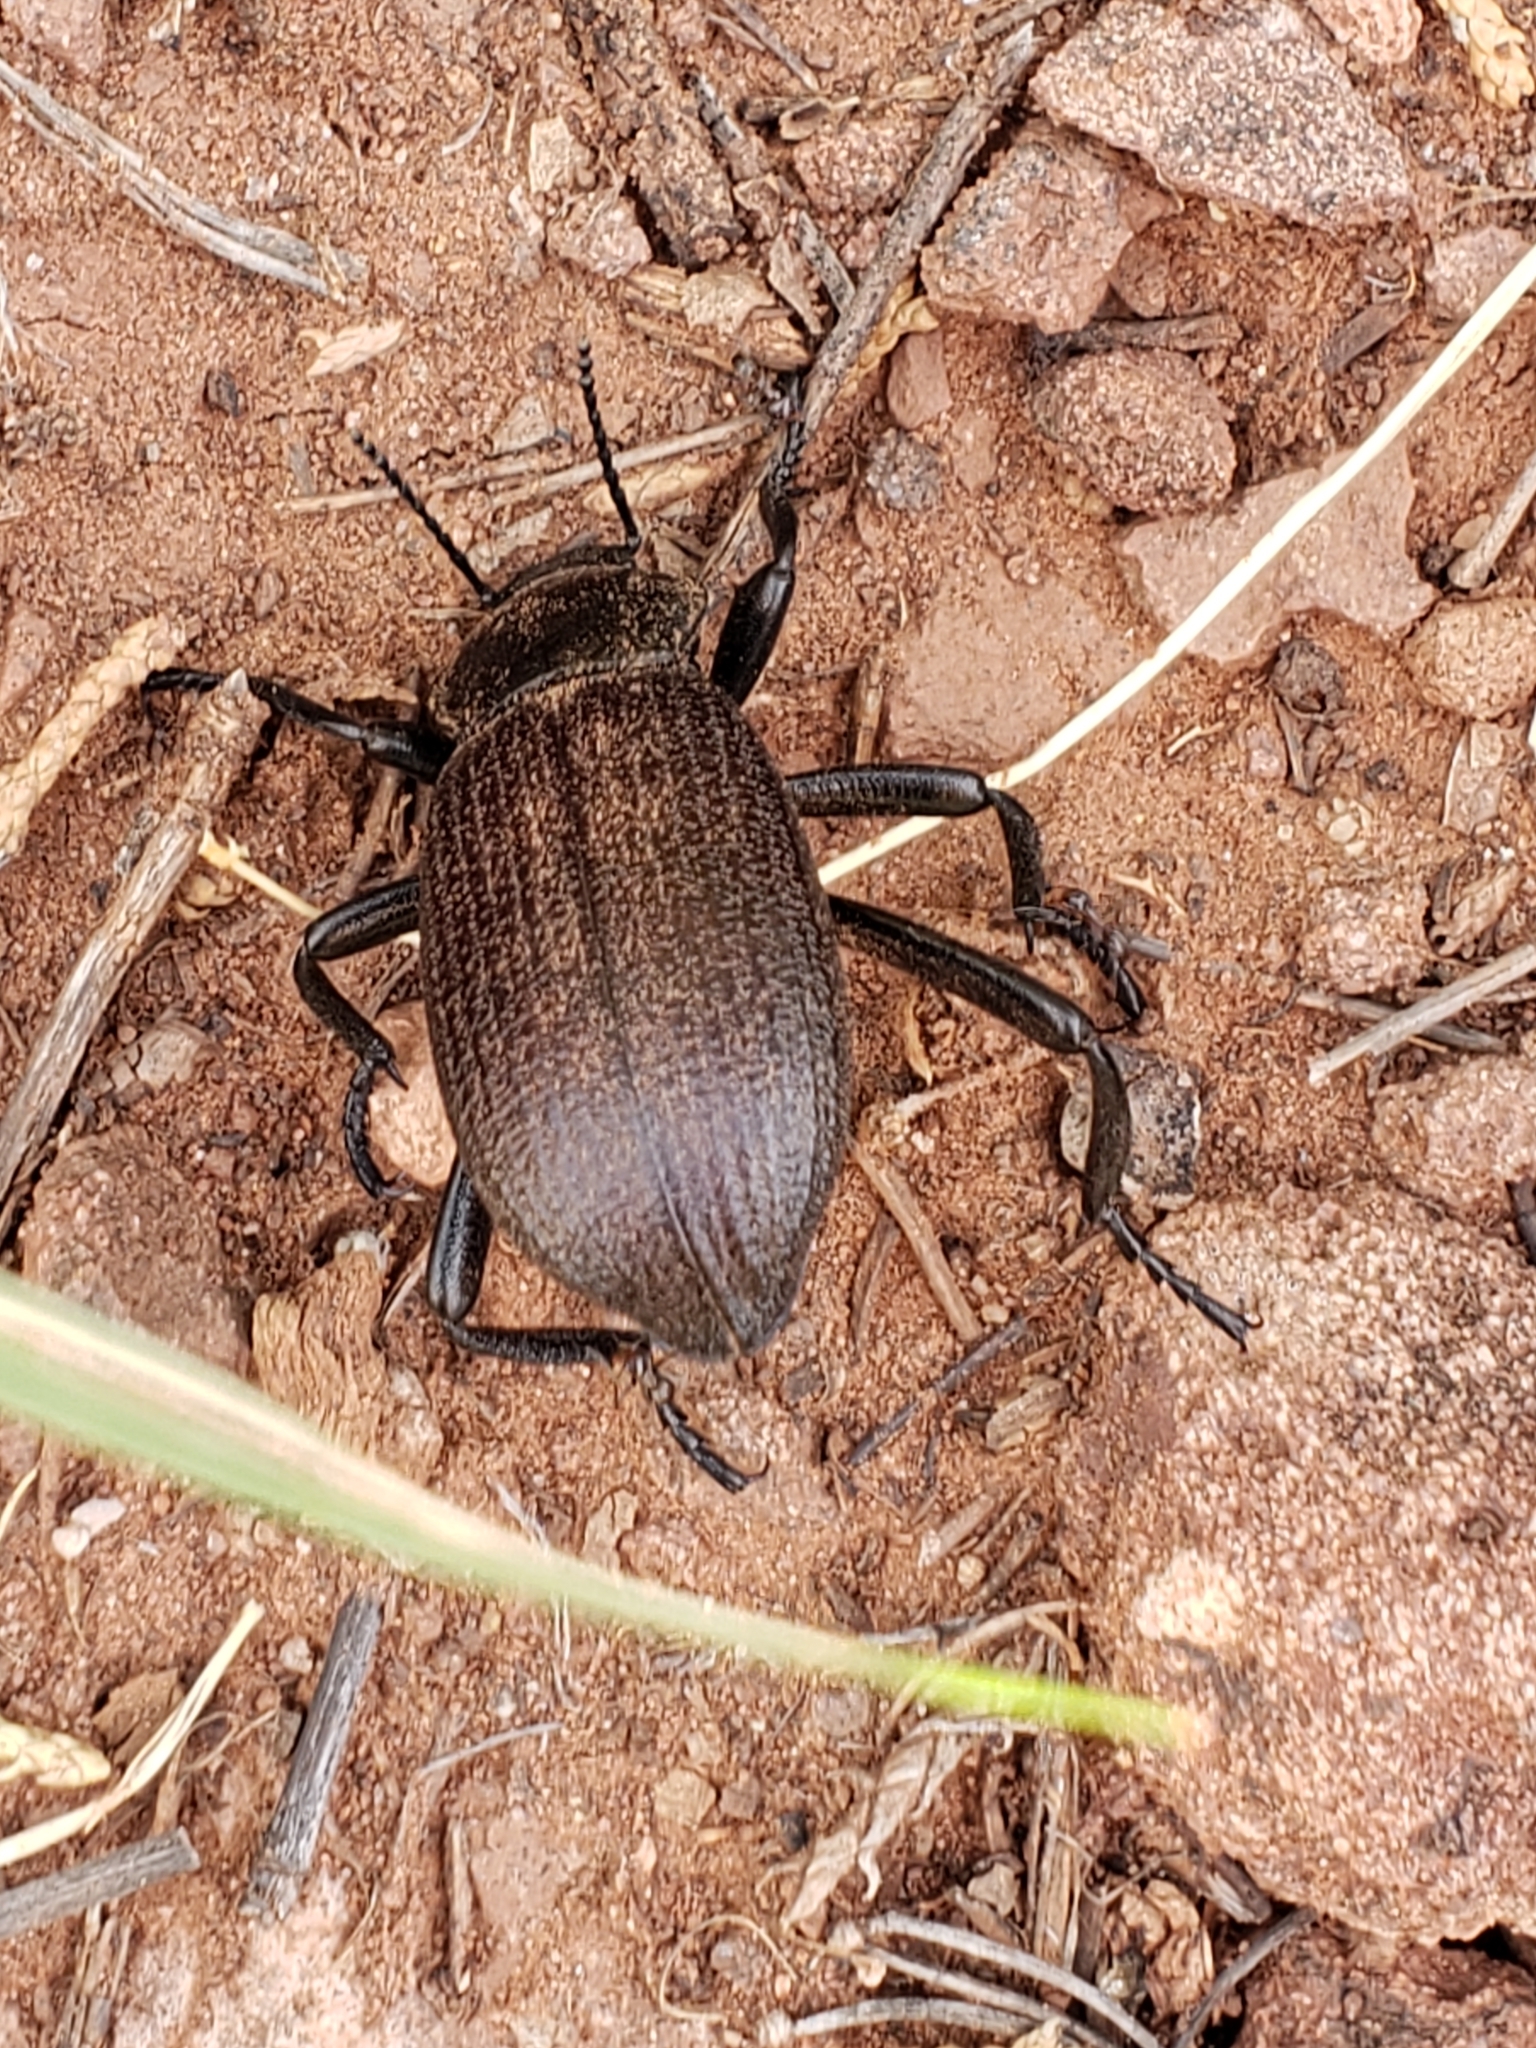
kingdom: Animalia
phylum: Arthropoda
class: Insecta
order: Coleoptera
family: Tenebrionidae
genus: Eleodes
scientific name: Eleodes obscura
